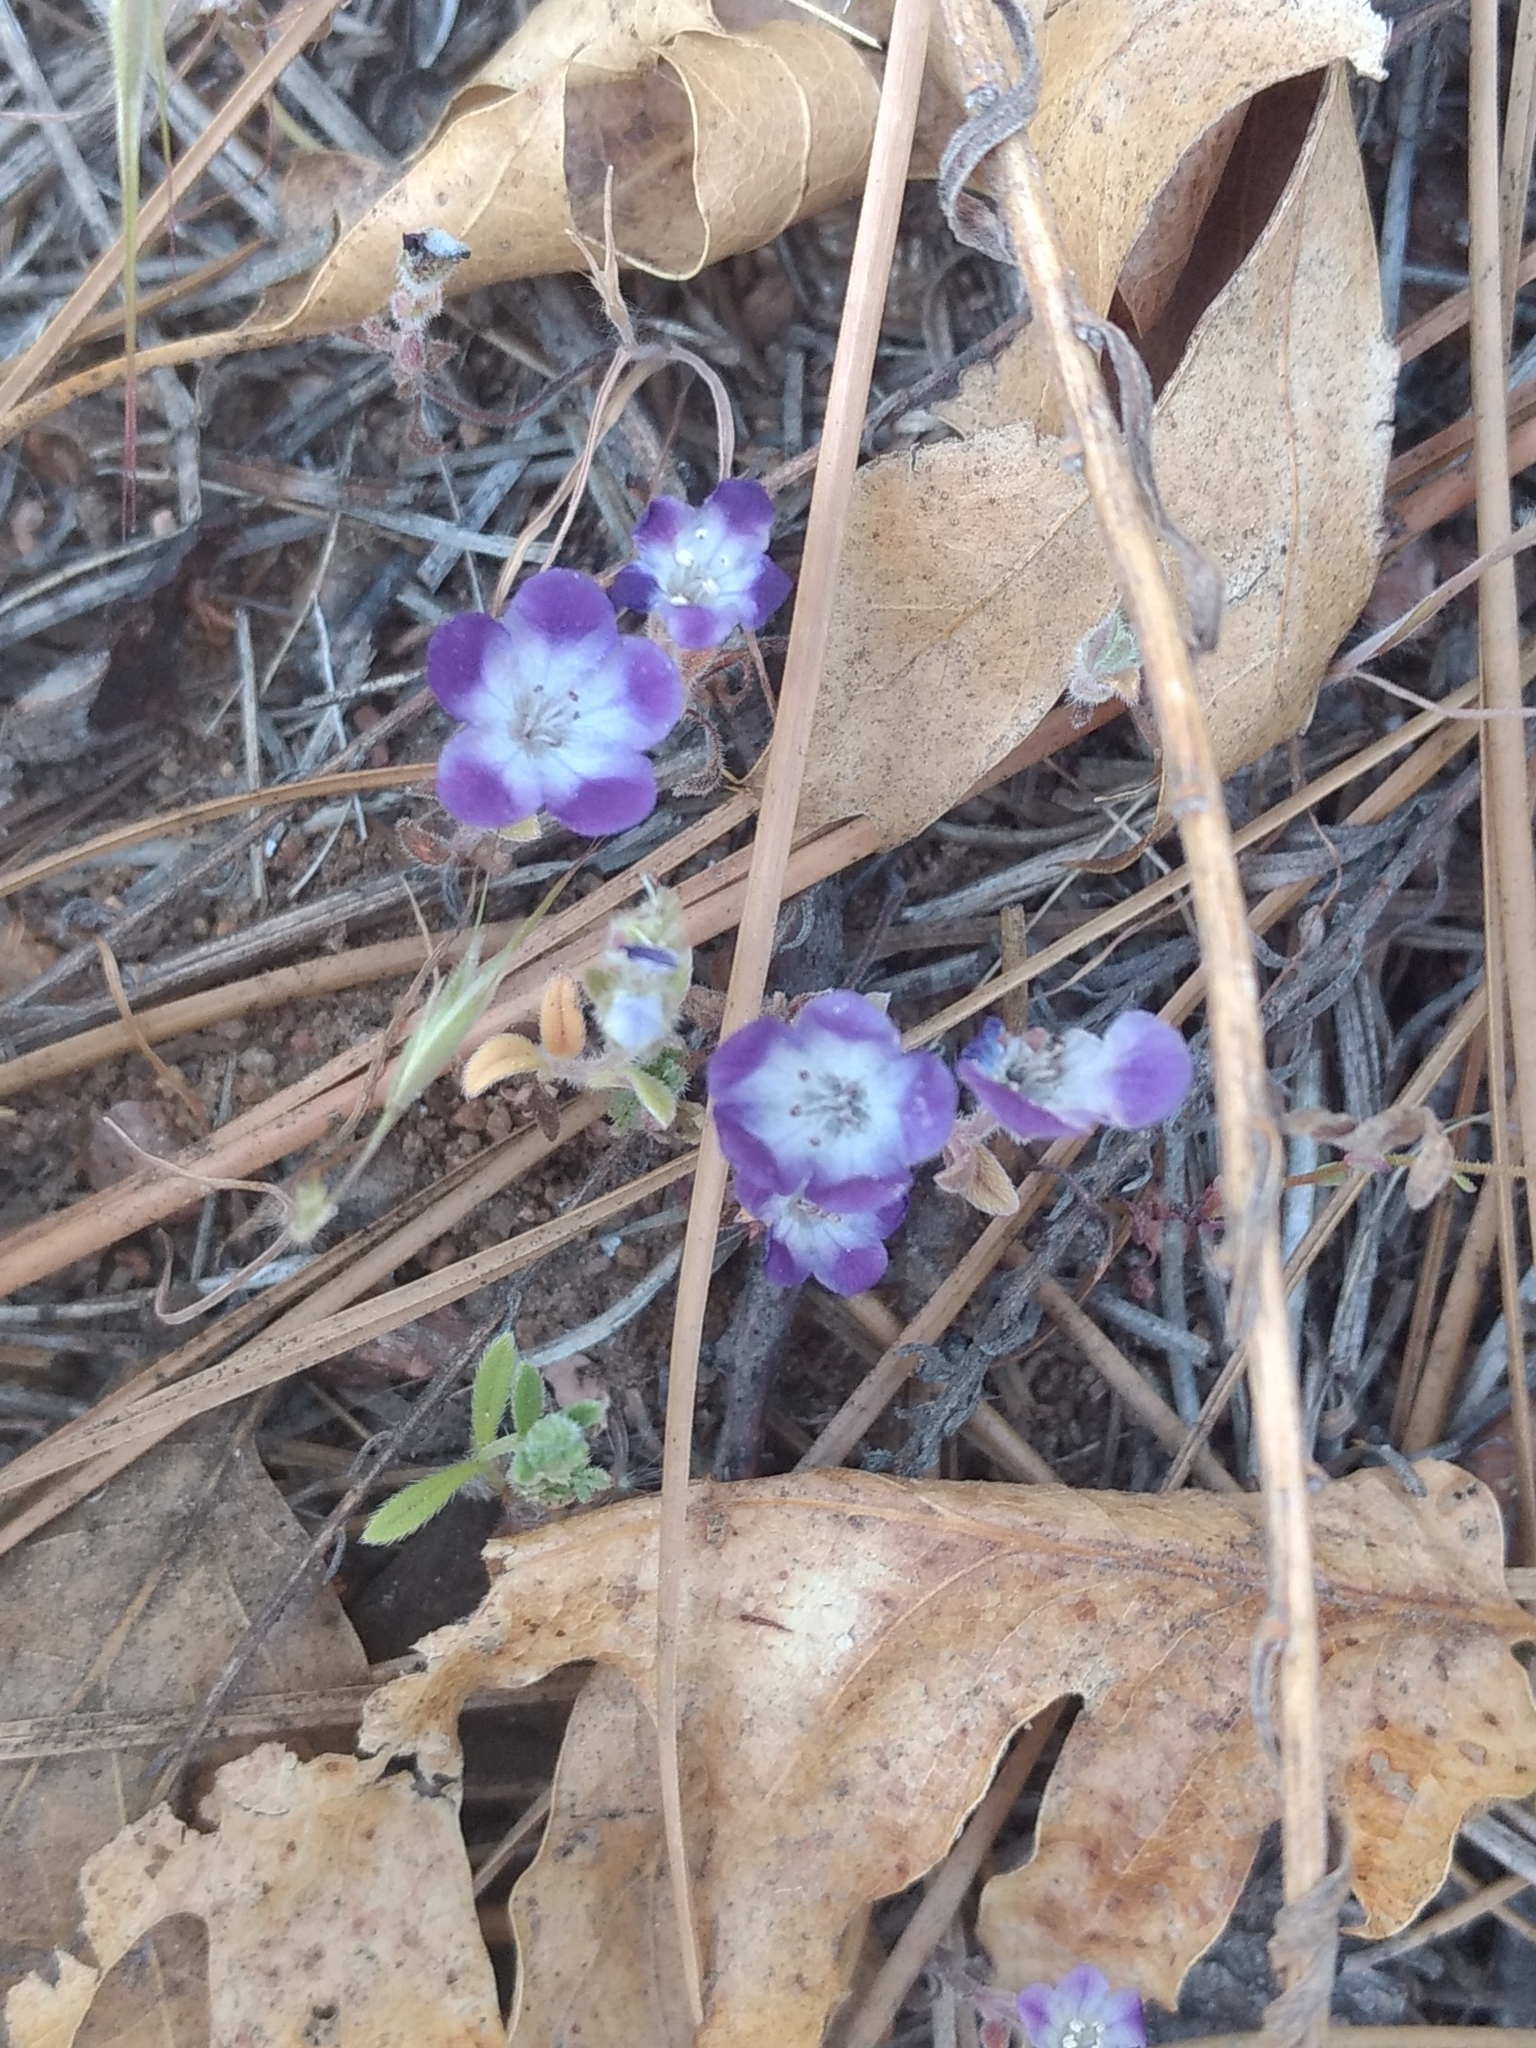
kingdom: Plantae
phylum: Tracheophyta
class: Magnoliopsida
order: Boraginales
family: Hydrophyllaceae
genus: Phacelia
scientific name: Phacelia davidsonii
